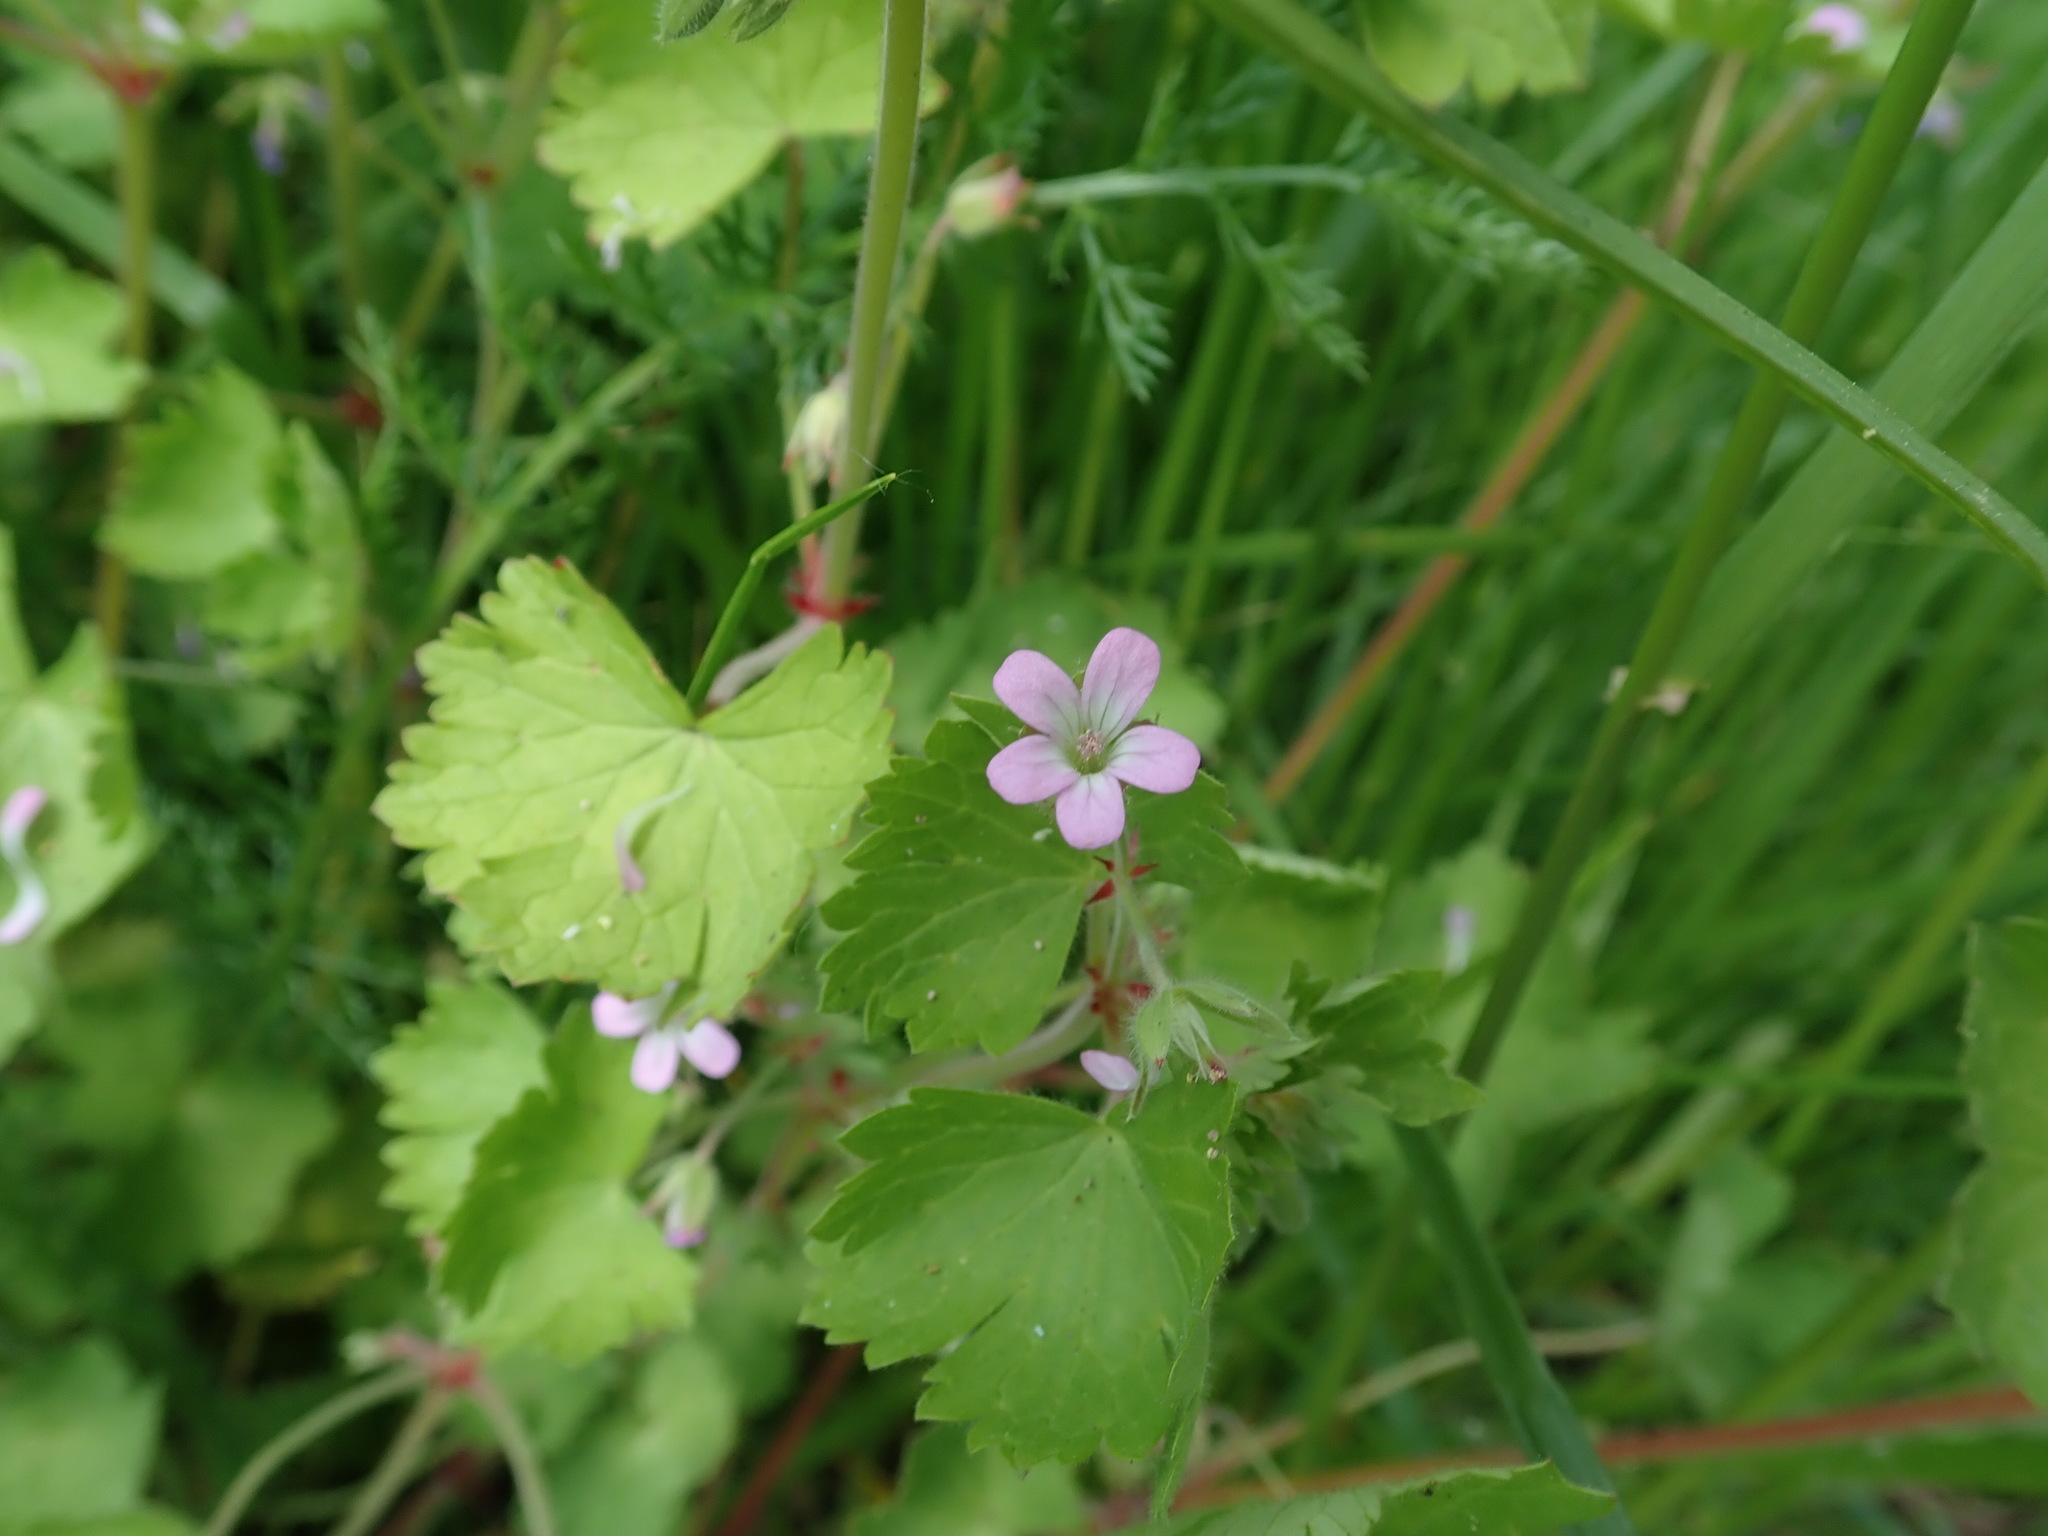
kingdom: Plantae
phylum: Tracheophyta
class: Magnoliopsida
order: Geraniales
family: Geraniaceae
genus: Geranium
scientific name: Geranium rotundifolium
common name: Round-leaved crane's-bill
